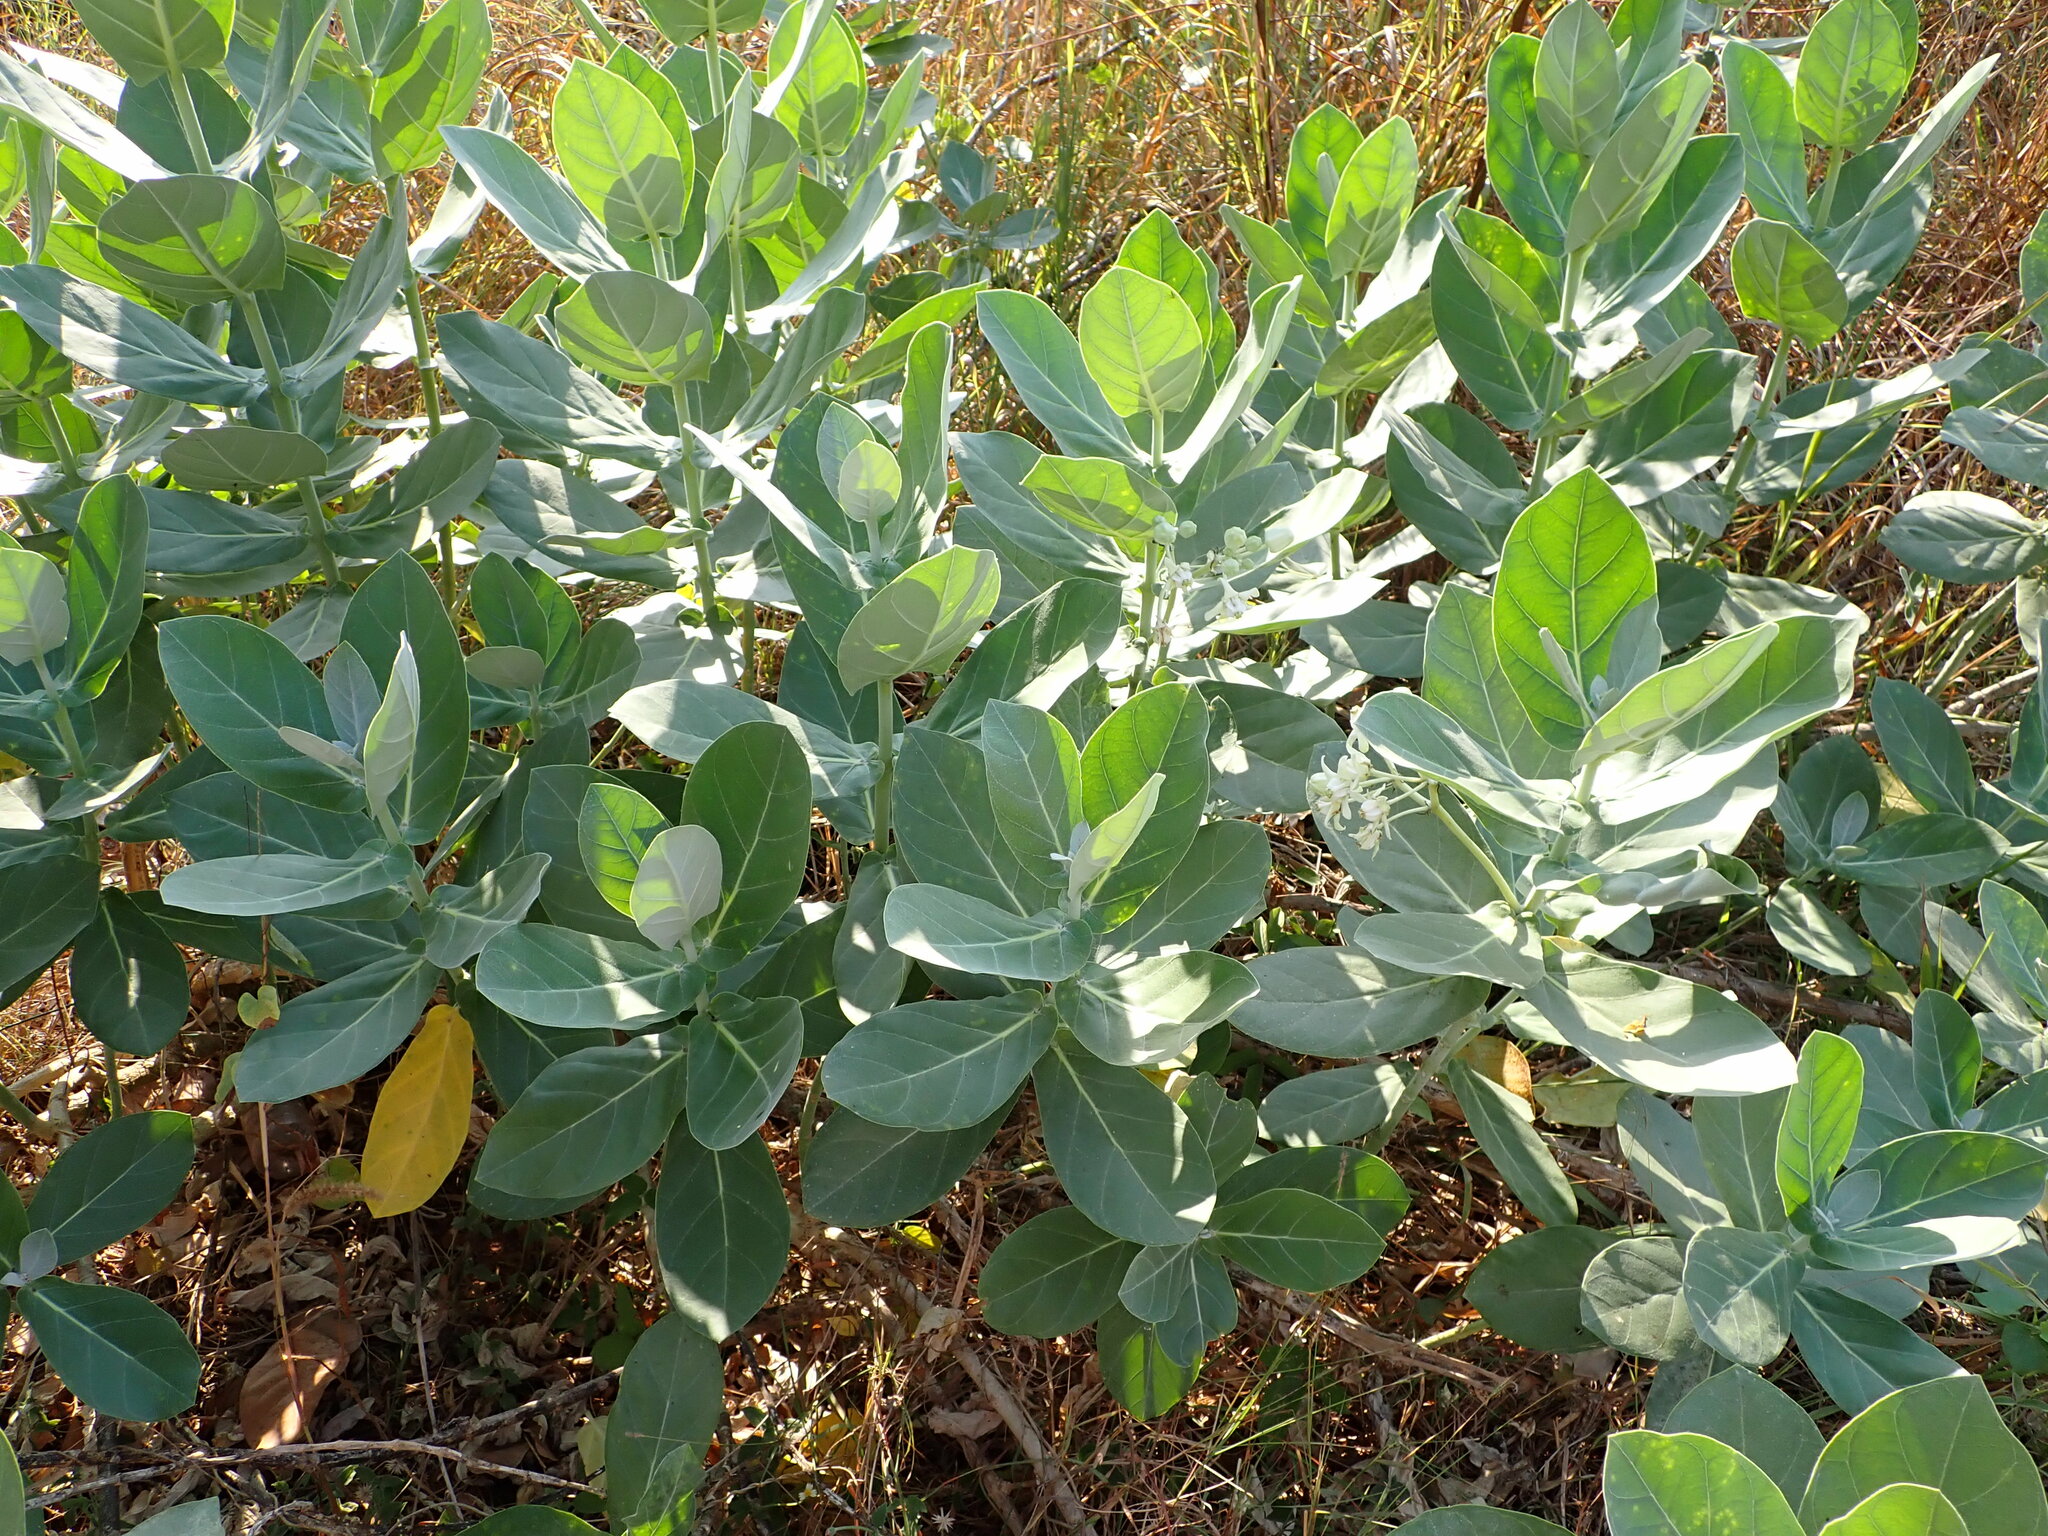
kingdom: Plantae
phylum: Tracheophyta
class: Magnoliopsida
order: Gentianales
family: Apocynaceae
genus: Calotropis
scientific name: Calotropis gigantea
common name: Crown flower
